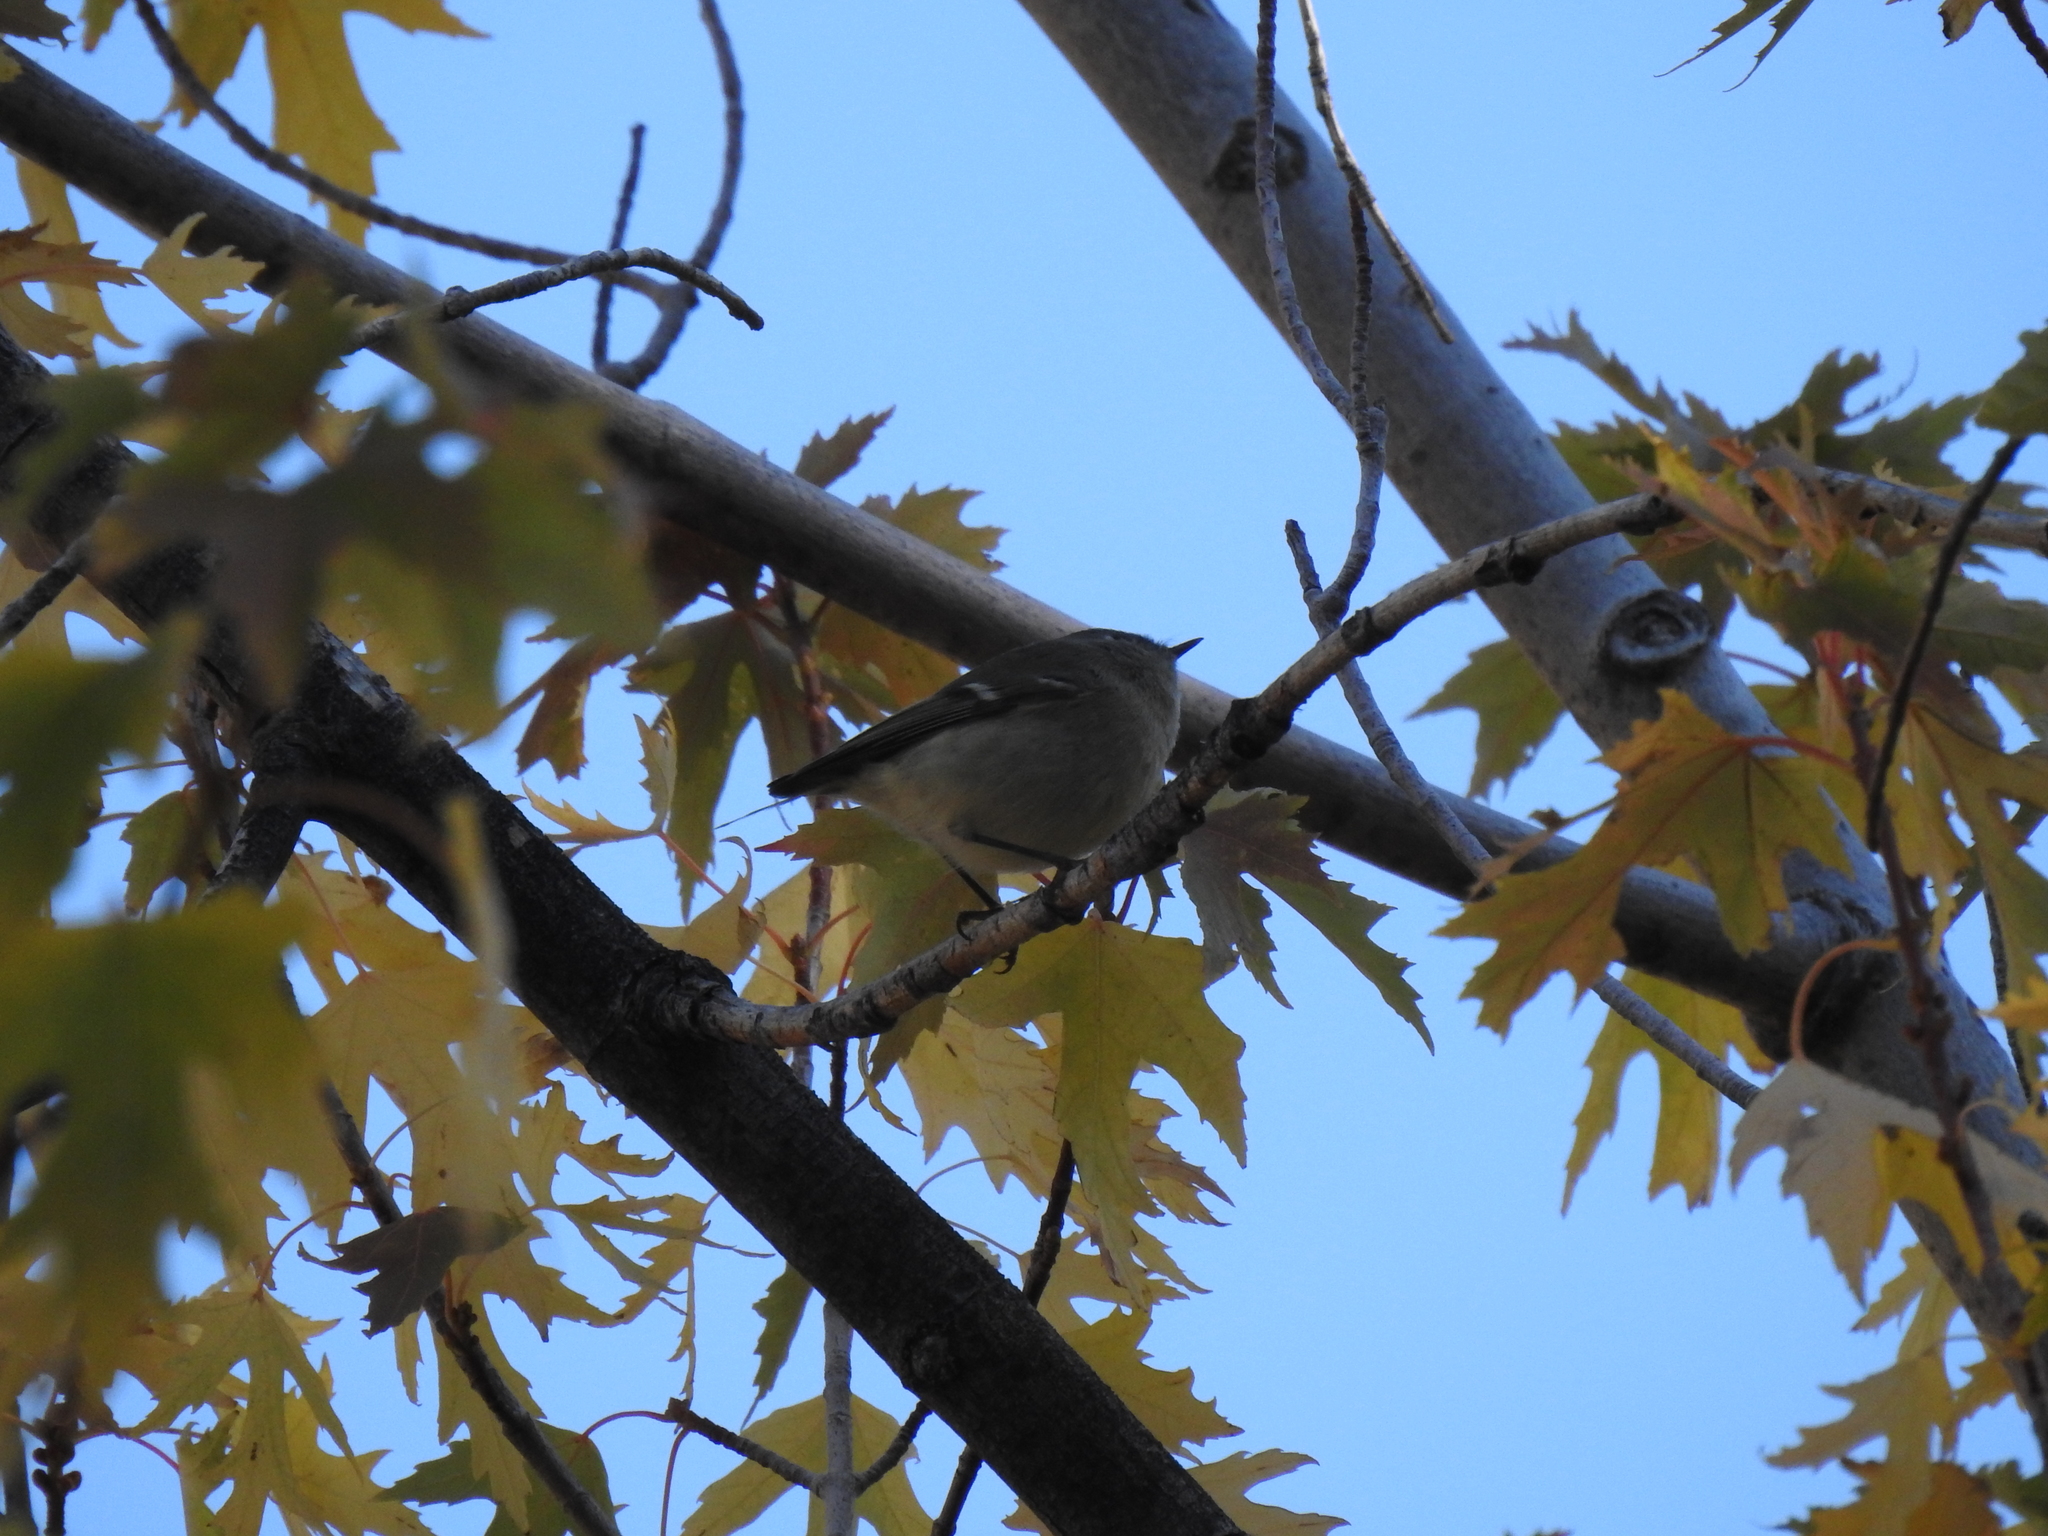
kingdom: Animalia
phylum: Chordata
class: Aves
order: Passeriformes
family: Regulidae
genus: Regulus
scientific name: Regulus calendula
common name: Ruby-crowned kinglet
